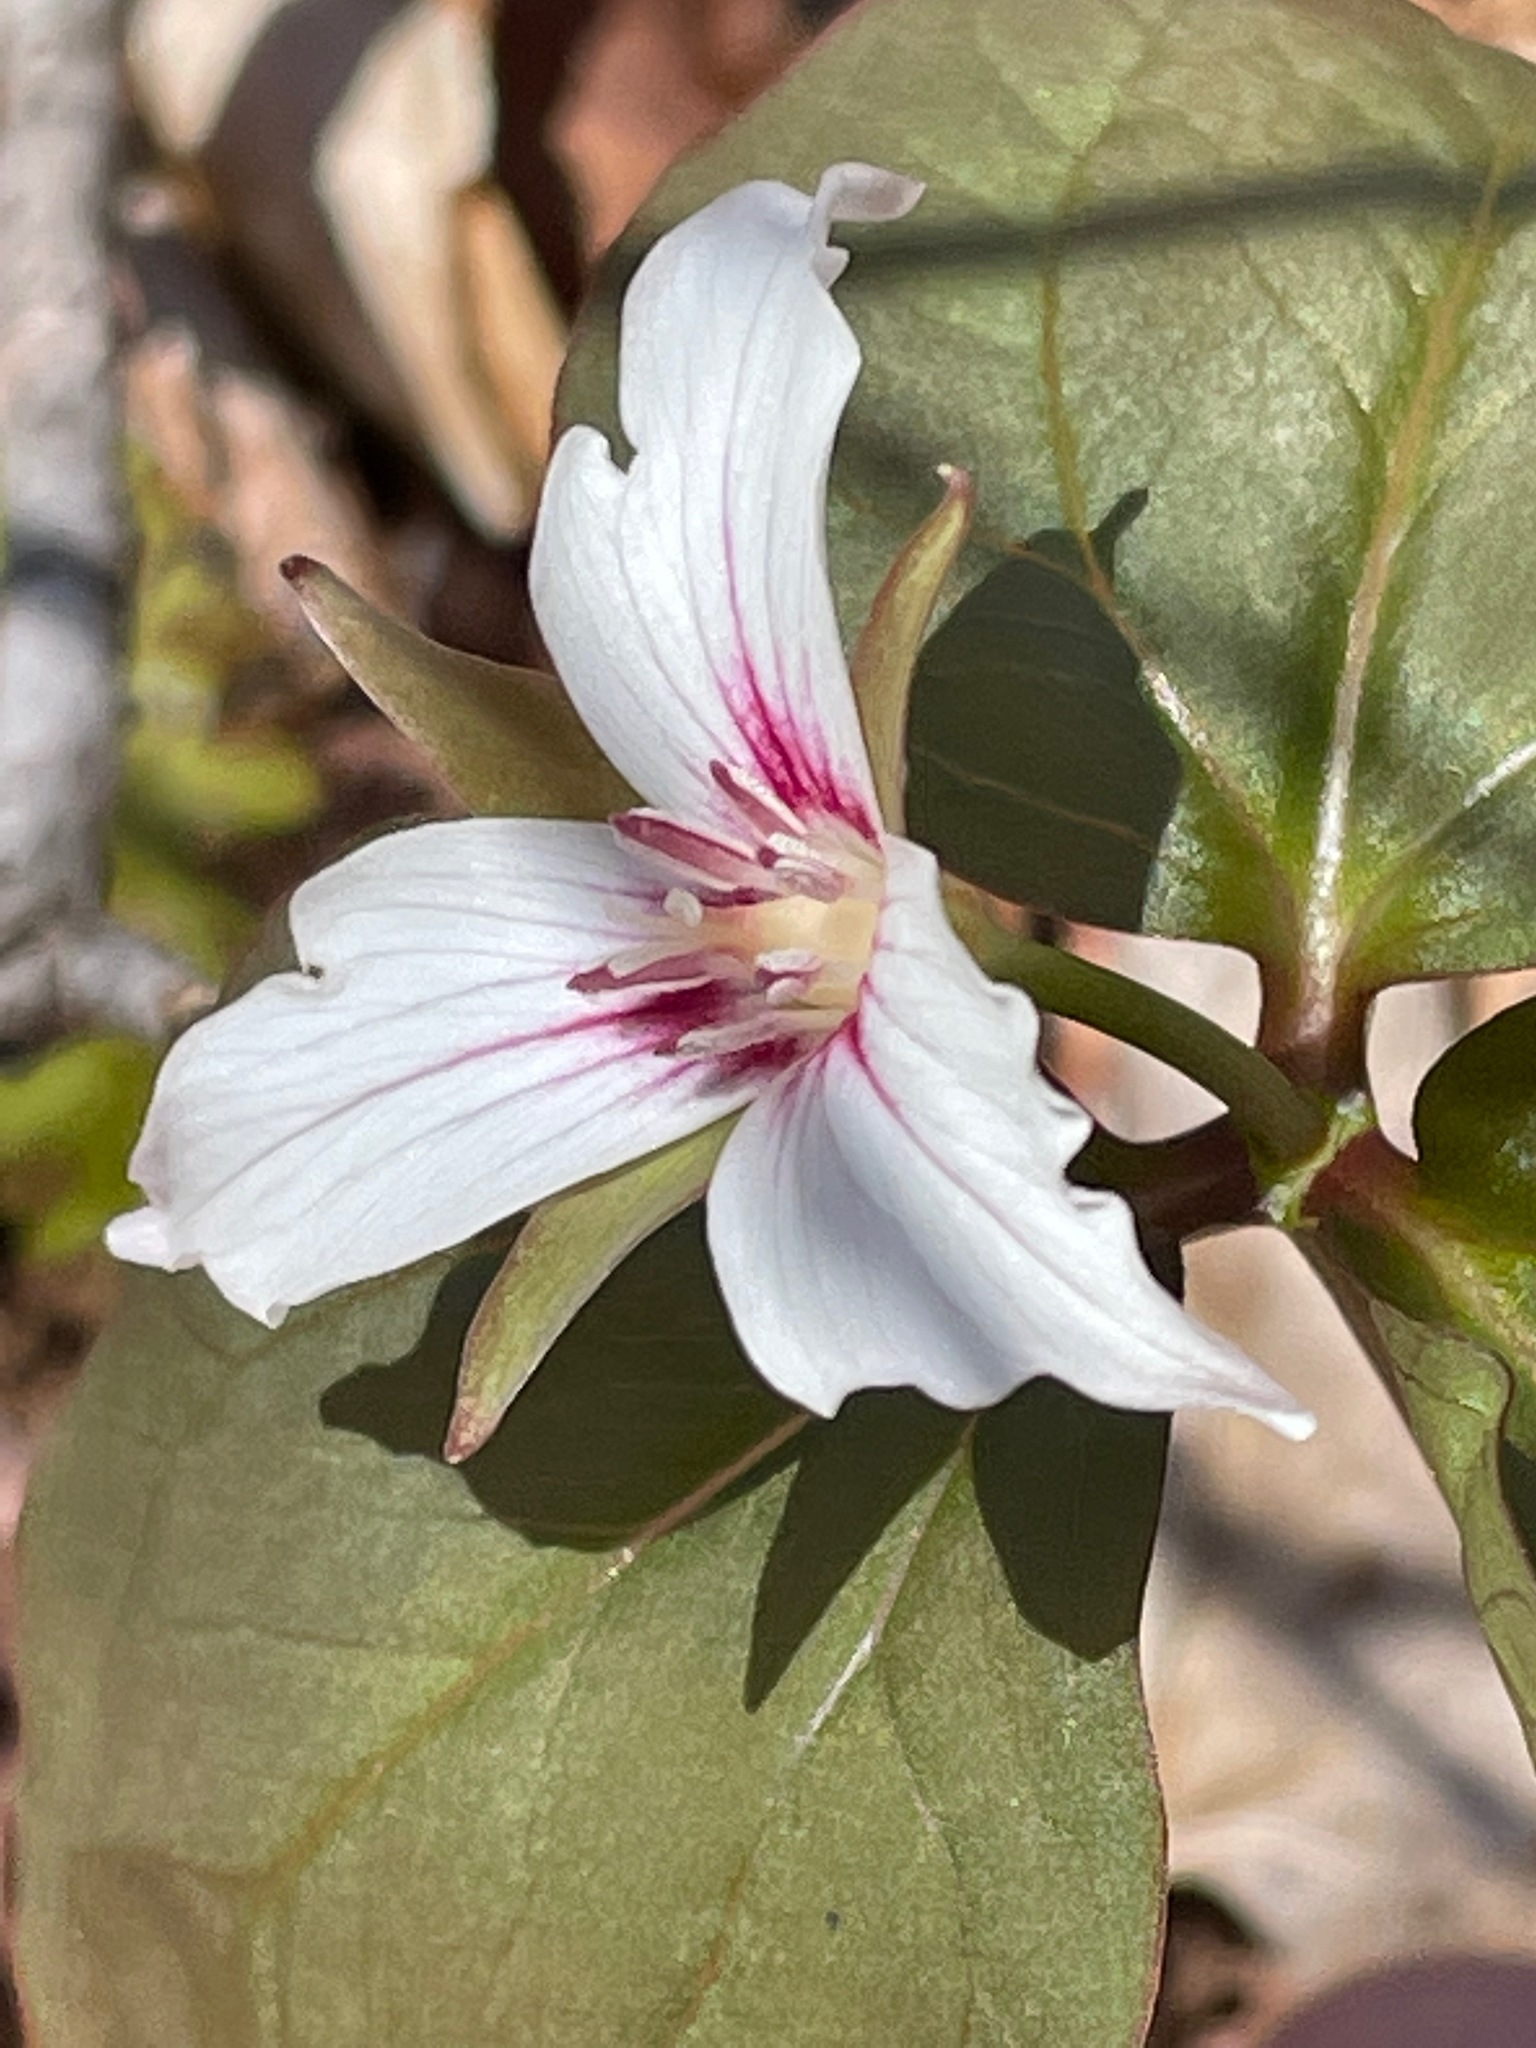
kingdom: Plantae
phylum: Tracheophyta
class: Liliopsida
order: Liliales
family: Melanthiaceae
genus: Trillium
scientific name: Trillium undulatum
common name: Paint trillium
